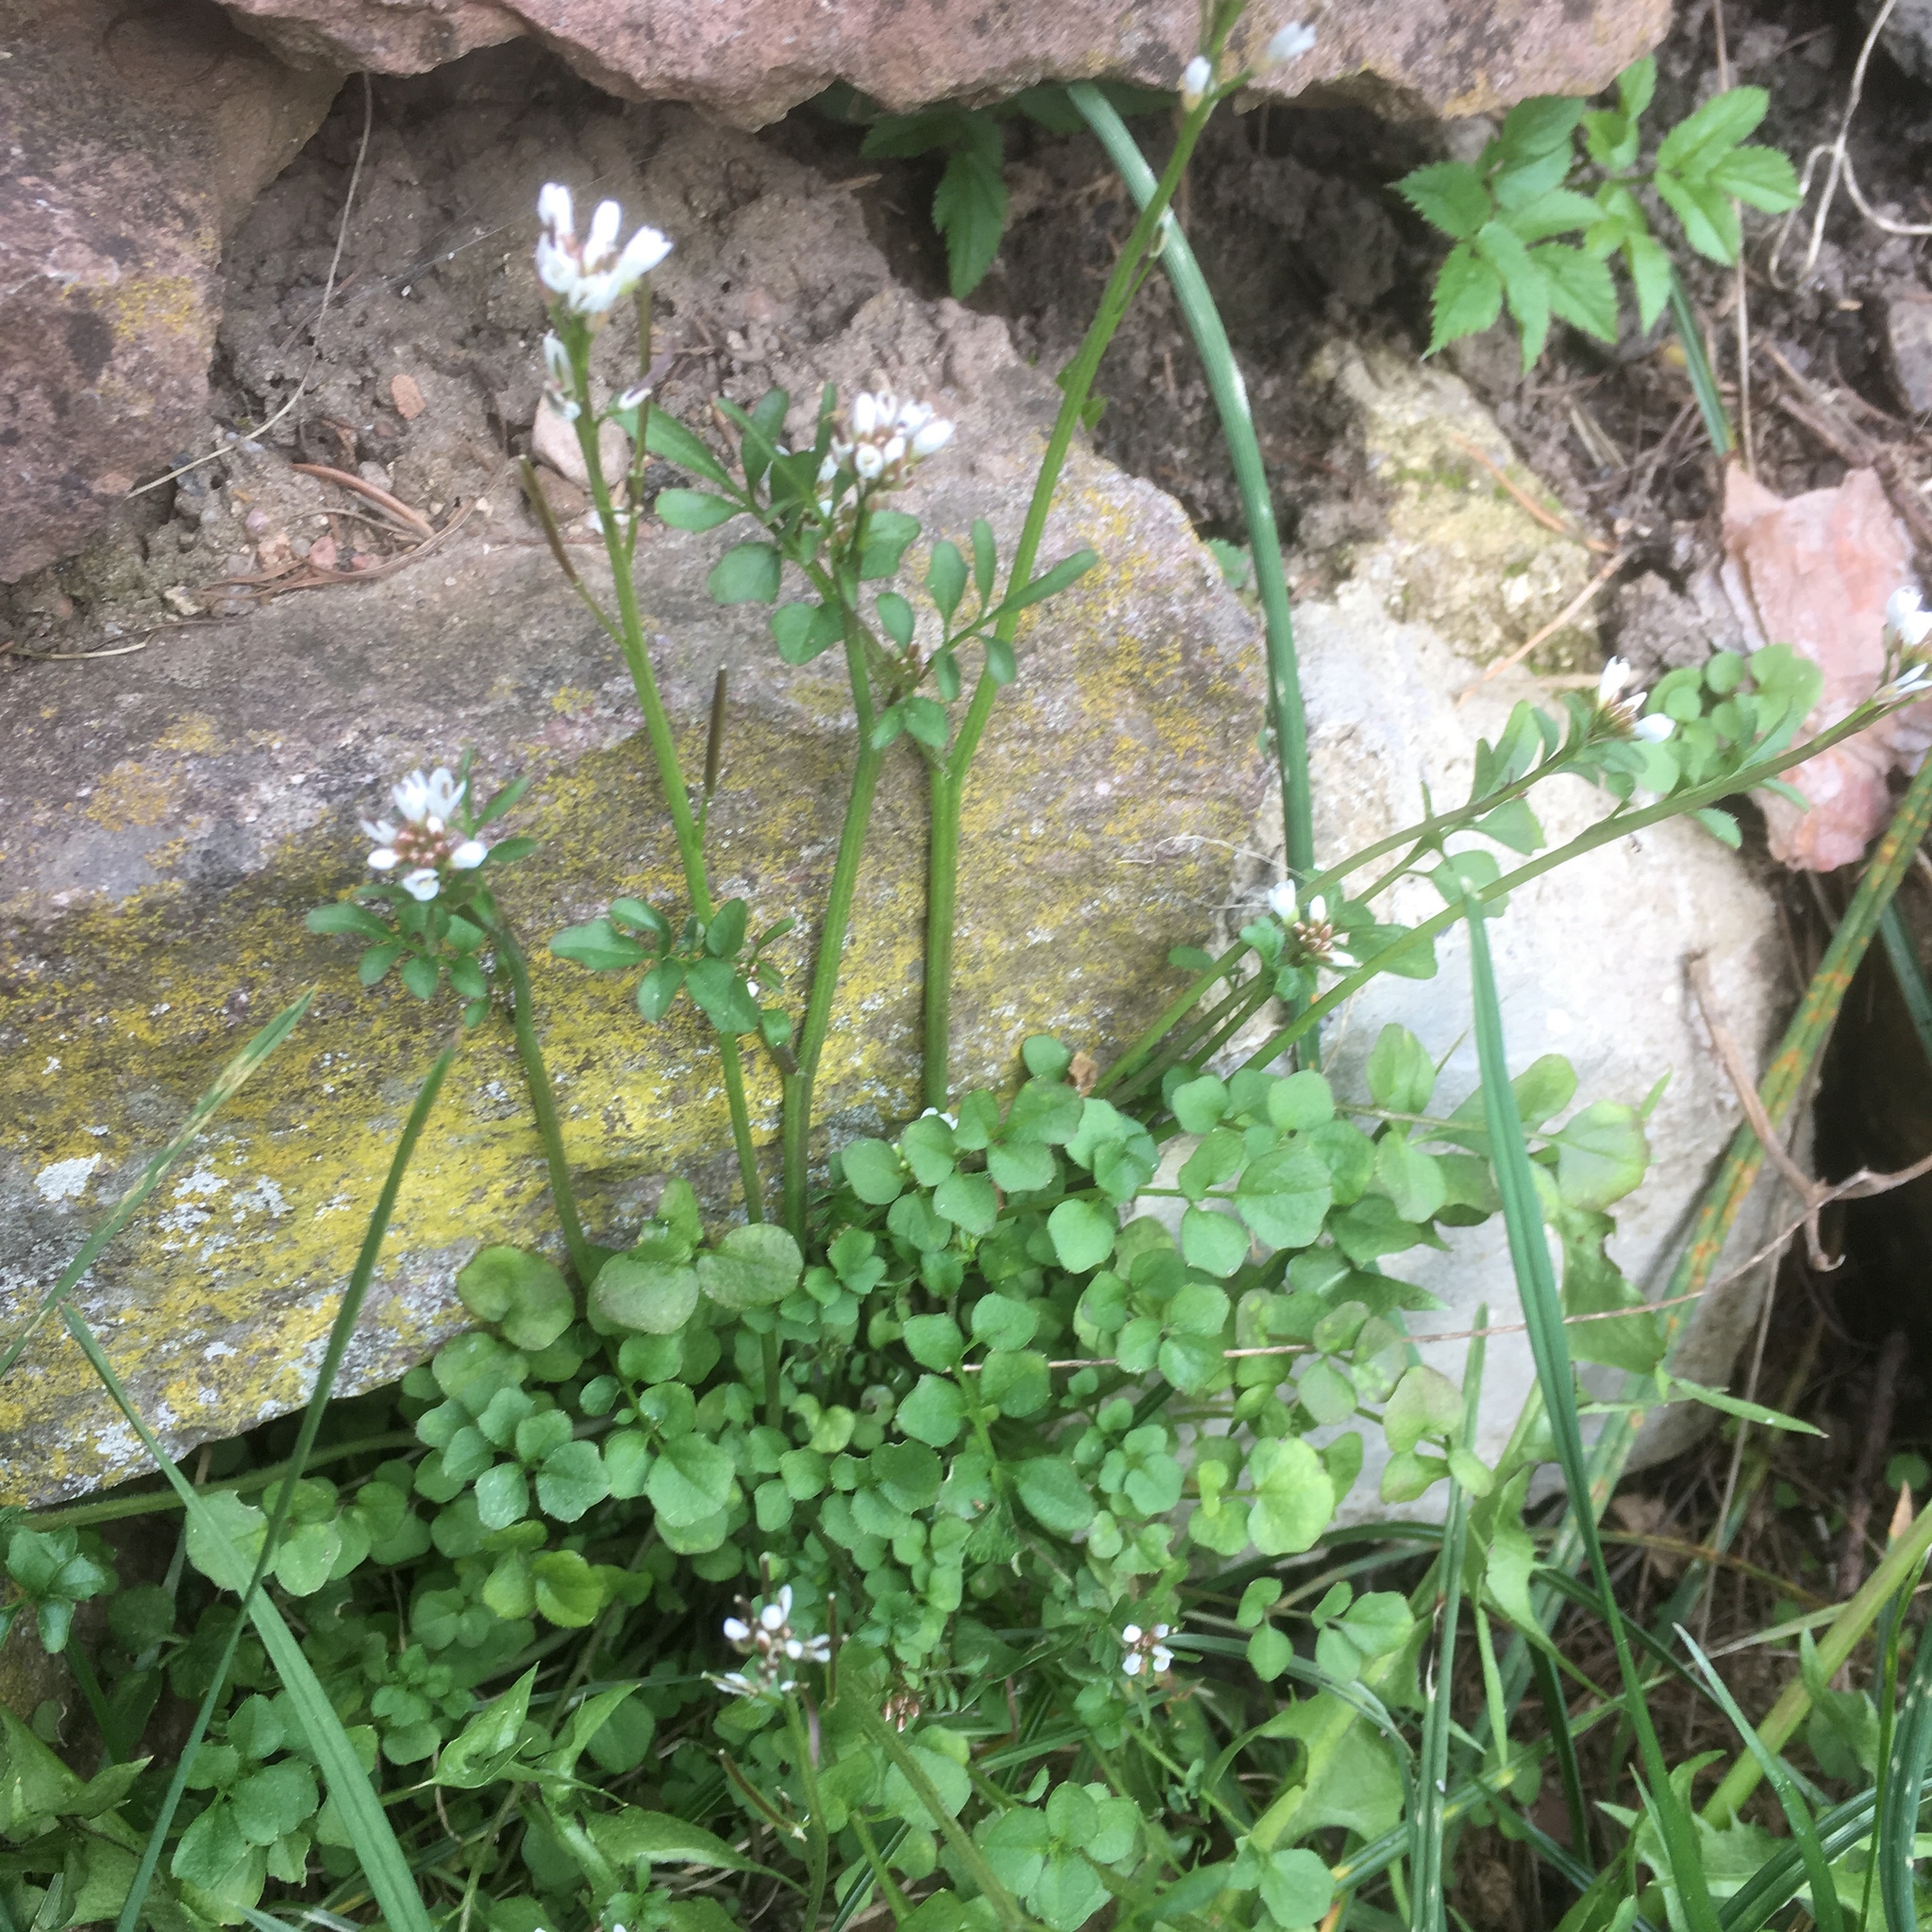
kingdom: Plantae
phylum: Tracheophyta
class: Magnoliopsida
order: Brassicales
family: Brassicaceae
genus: Cardamine
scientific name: Cardamine hirsuta
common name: Hairy bittercress
